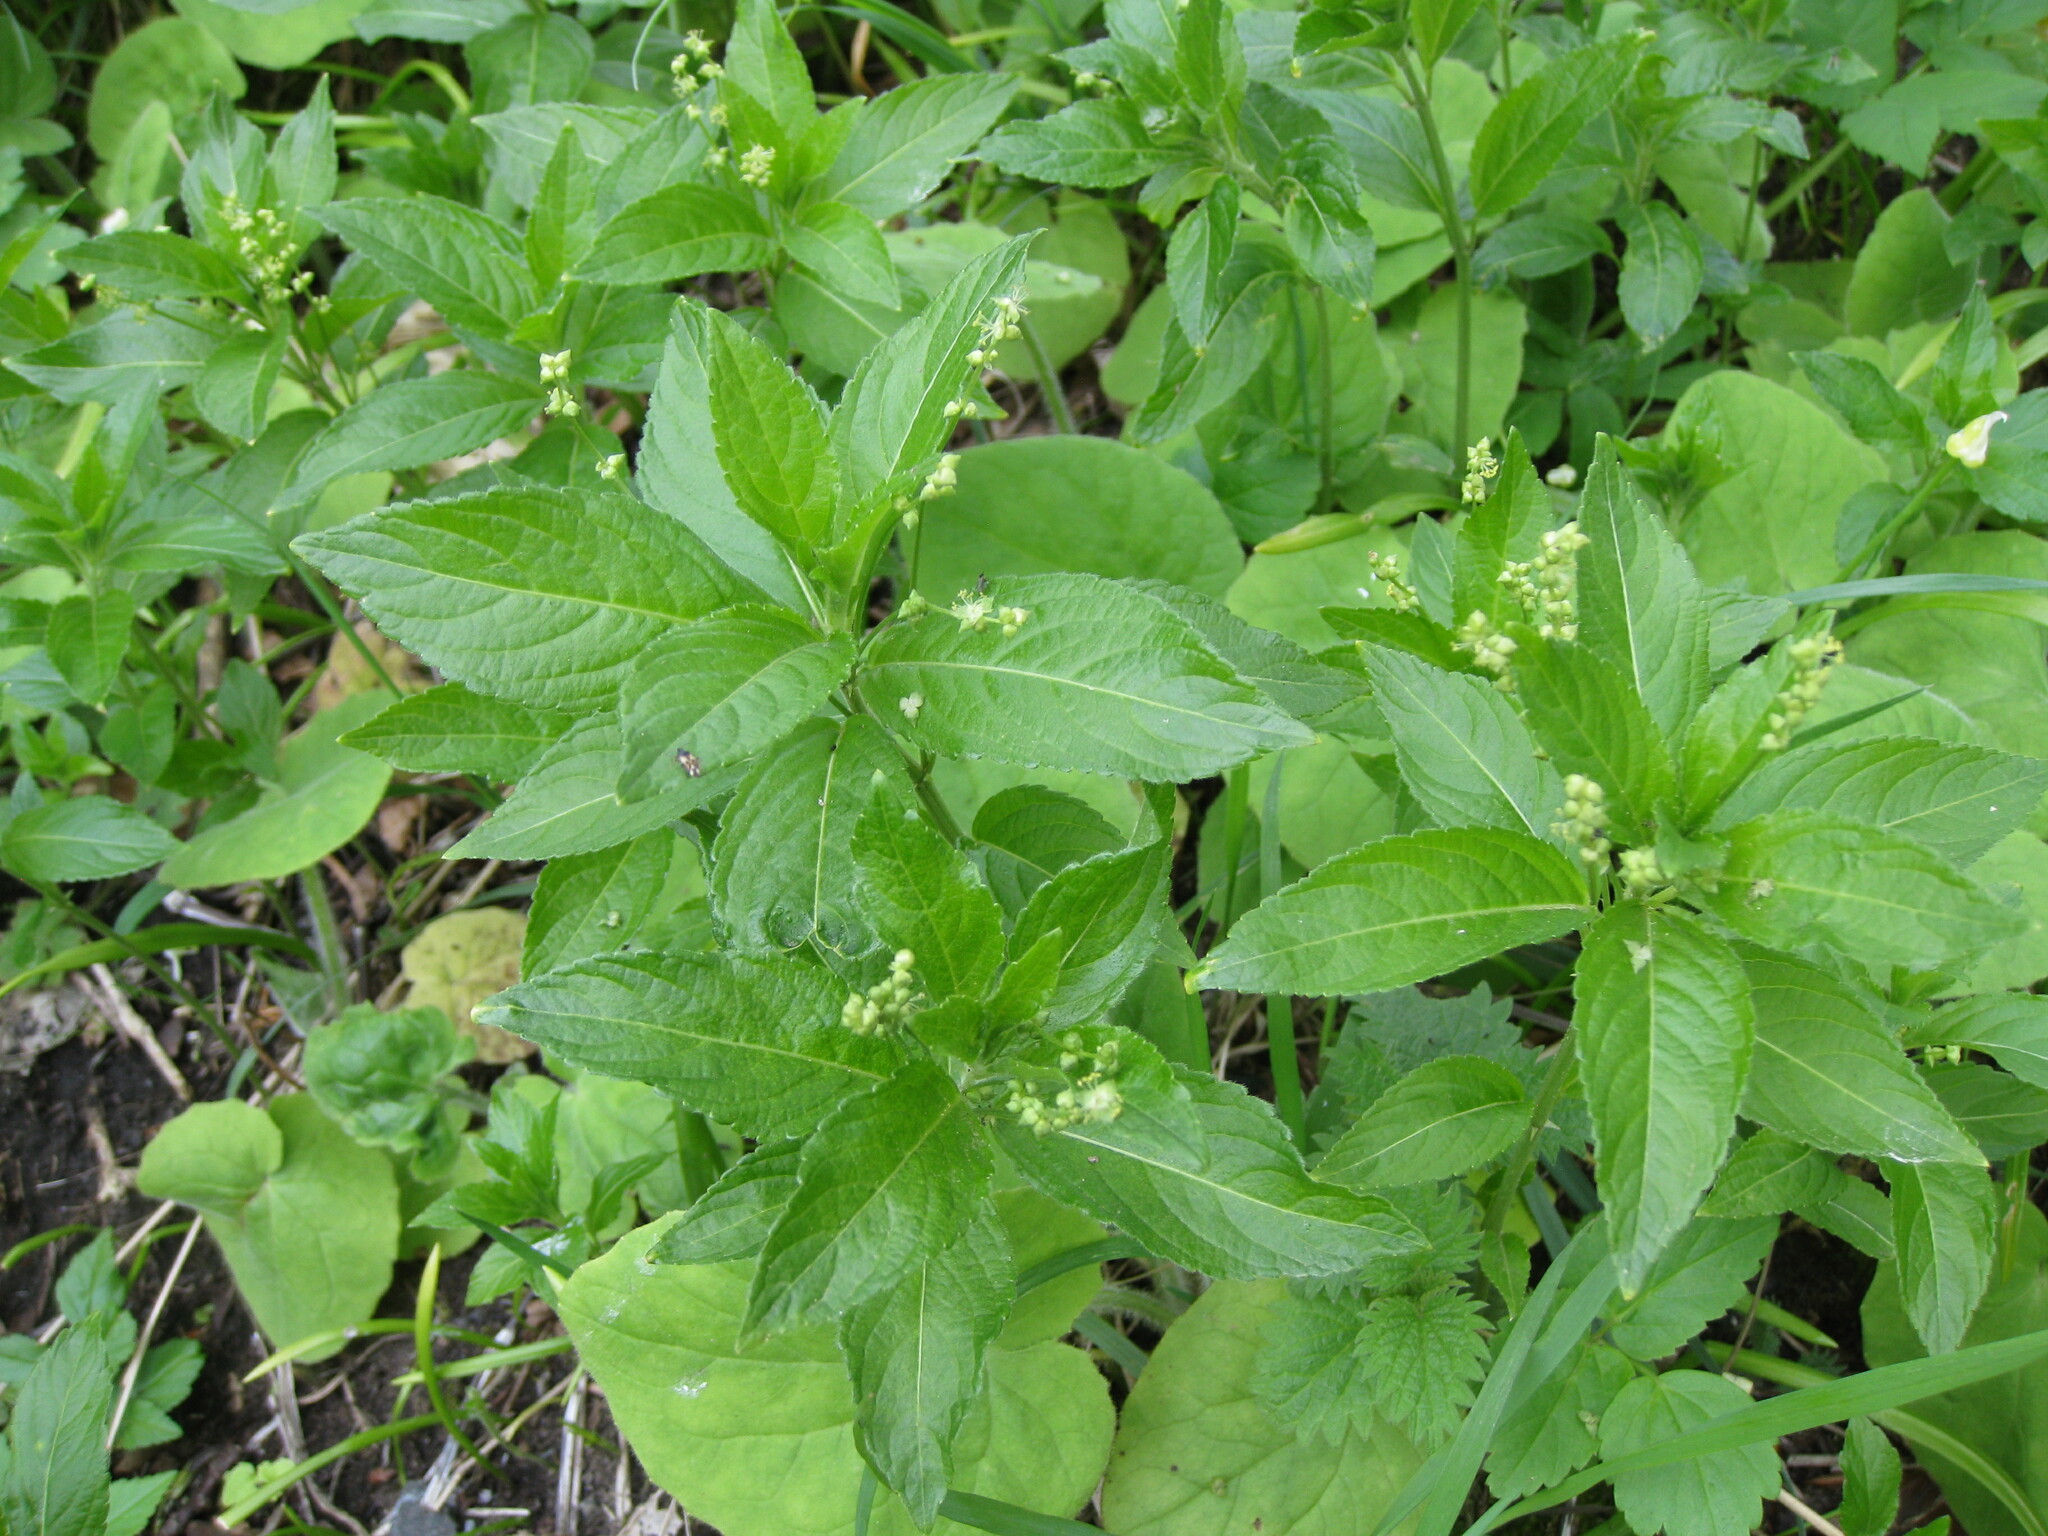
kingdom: Plantae
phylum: Tracheophyta
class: Magnoliopsida
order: Malpighiales
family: Euphorbiaceae
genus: Mercurialis
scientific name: Mercurialis perennis
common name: Dog mercury
